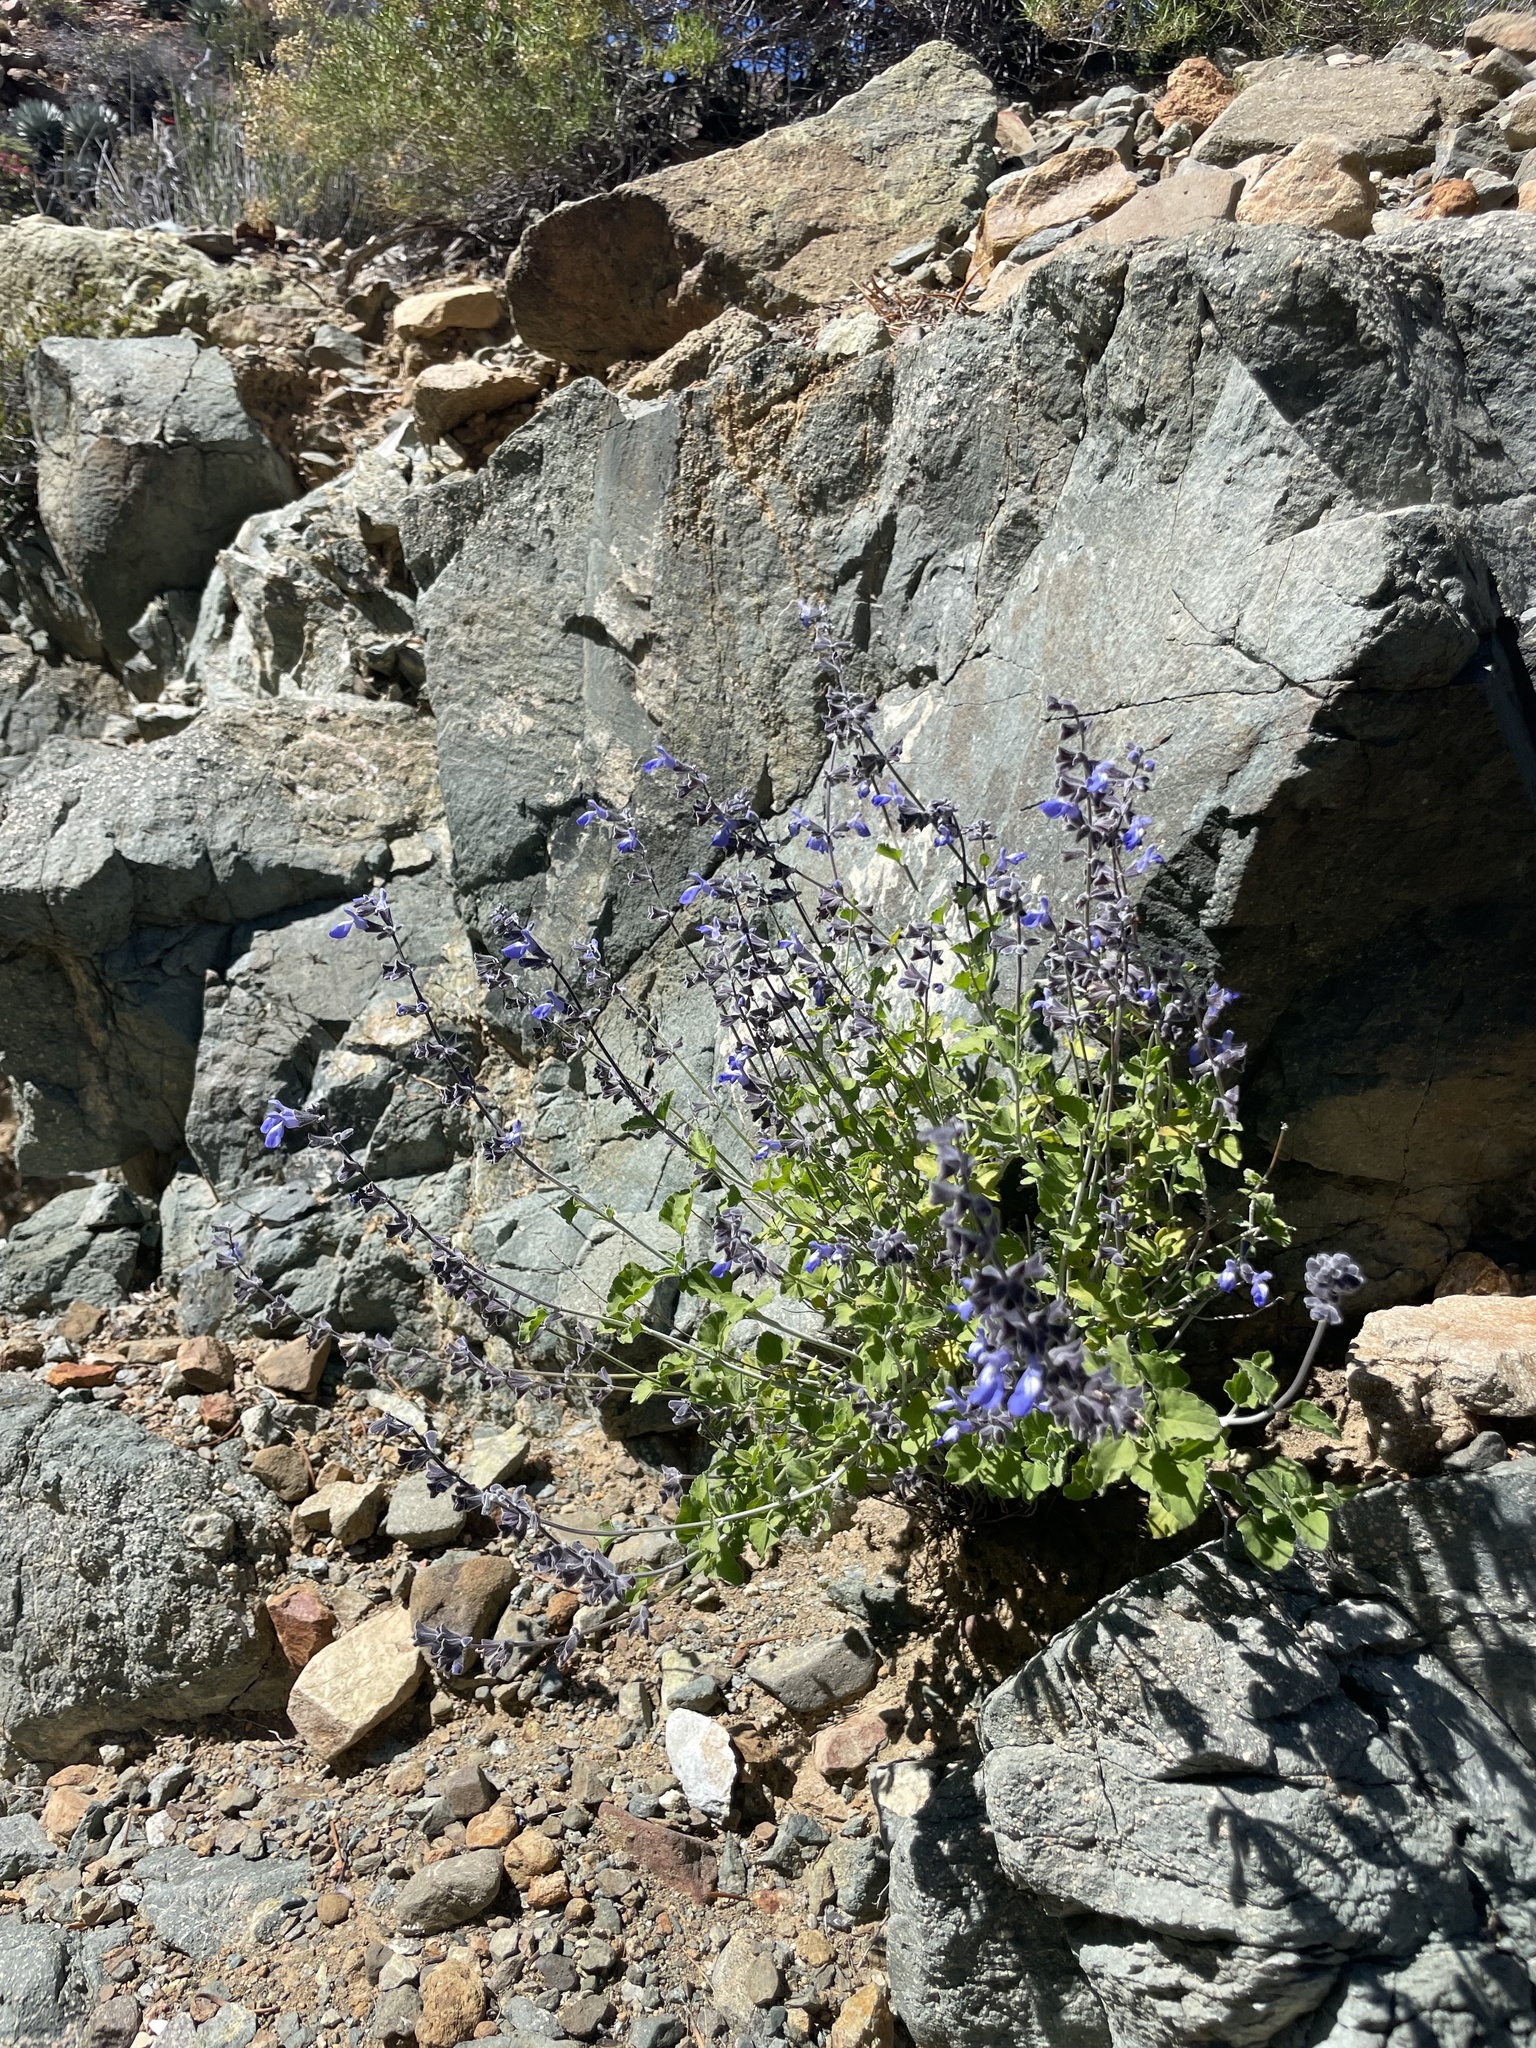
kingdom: Plantae
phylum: Tracheophyta
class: Magnoliopsida
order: Lamiales
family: Lamiaceae
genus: Salvia
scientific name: Salvia cedrosensis
